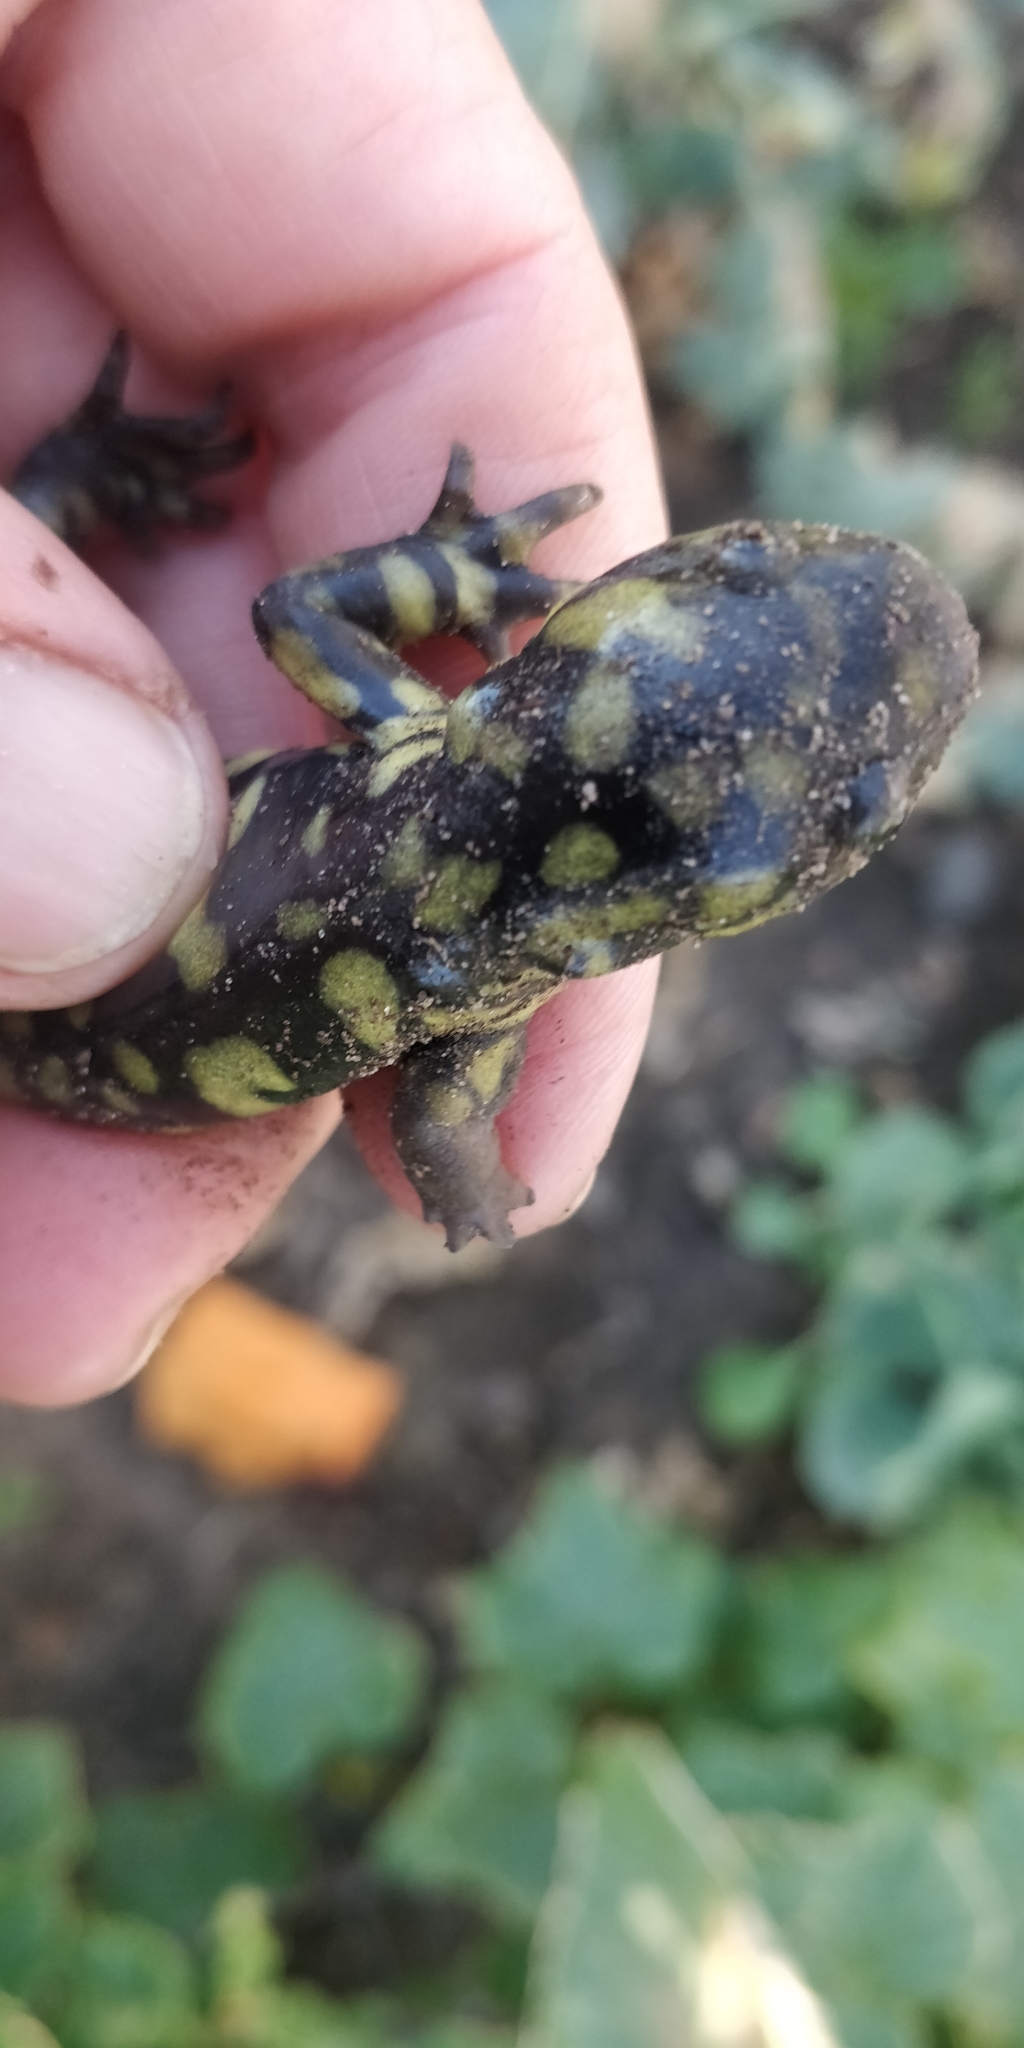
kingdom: Animalia
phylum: Chordata
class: Amphibia
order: Caudata
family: Ambystomatidae
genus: Ambystoma
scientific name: Ambystoma mavortium
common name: Western tiger salamander
